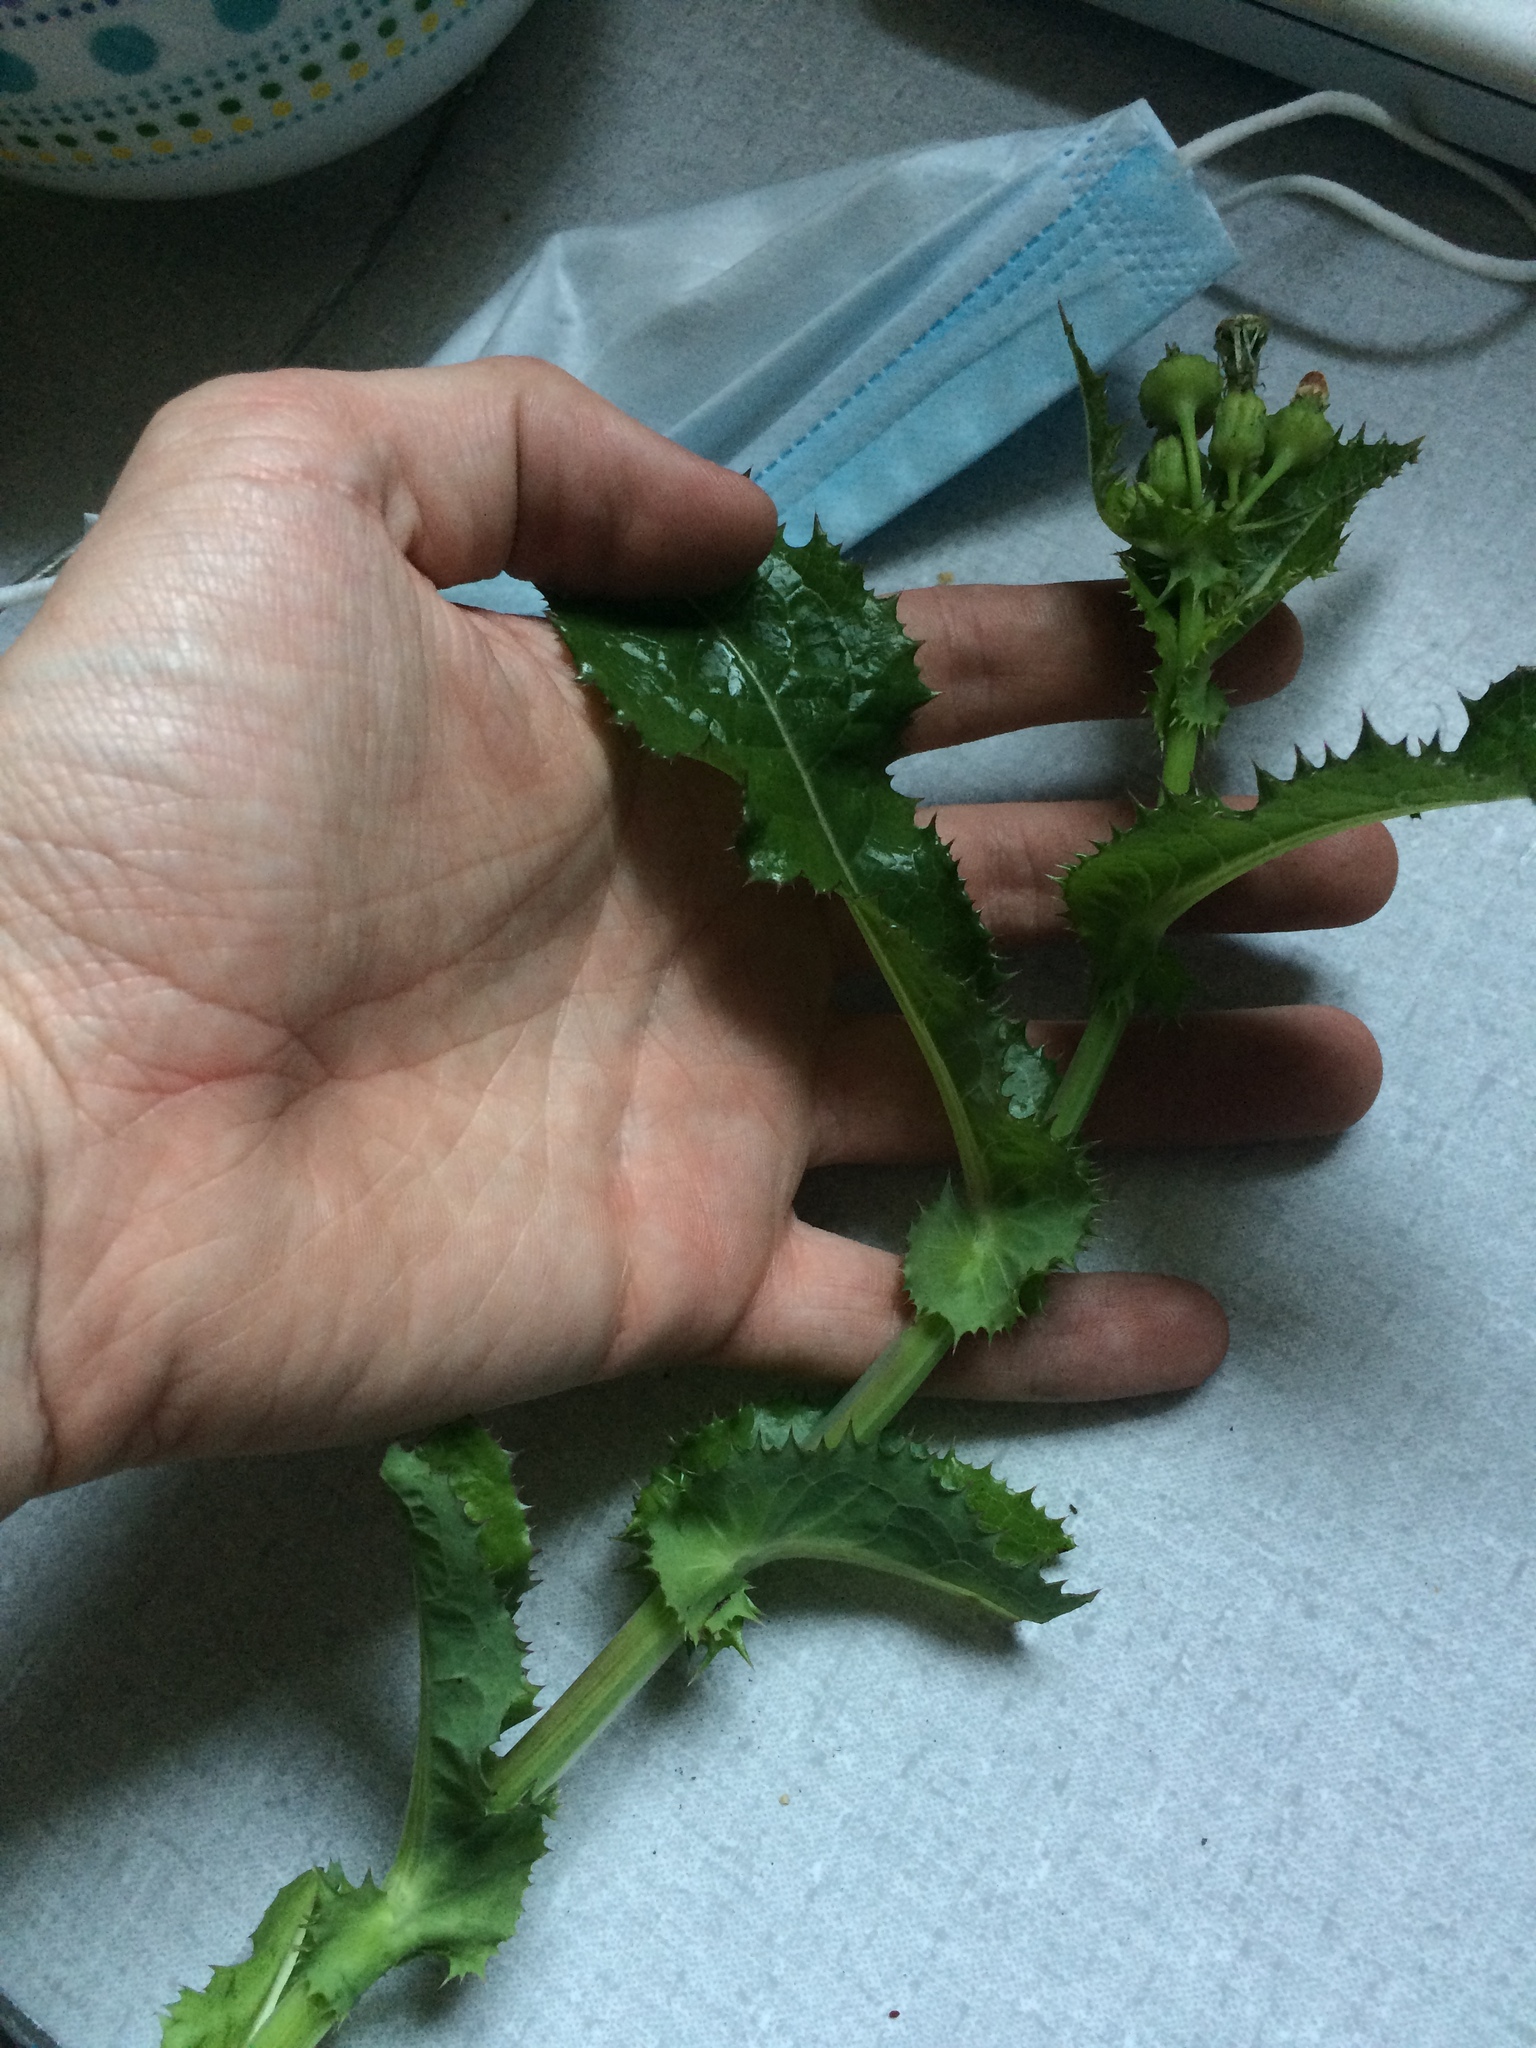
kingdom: Plantae
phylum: Tracheophyta
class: Magnoliopsida
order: Asterales
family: Asteraceae
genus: Sonchus
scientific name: Sonchus asper
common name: Prickly sow-thistle
